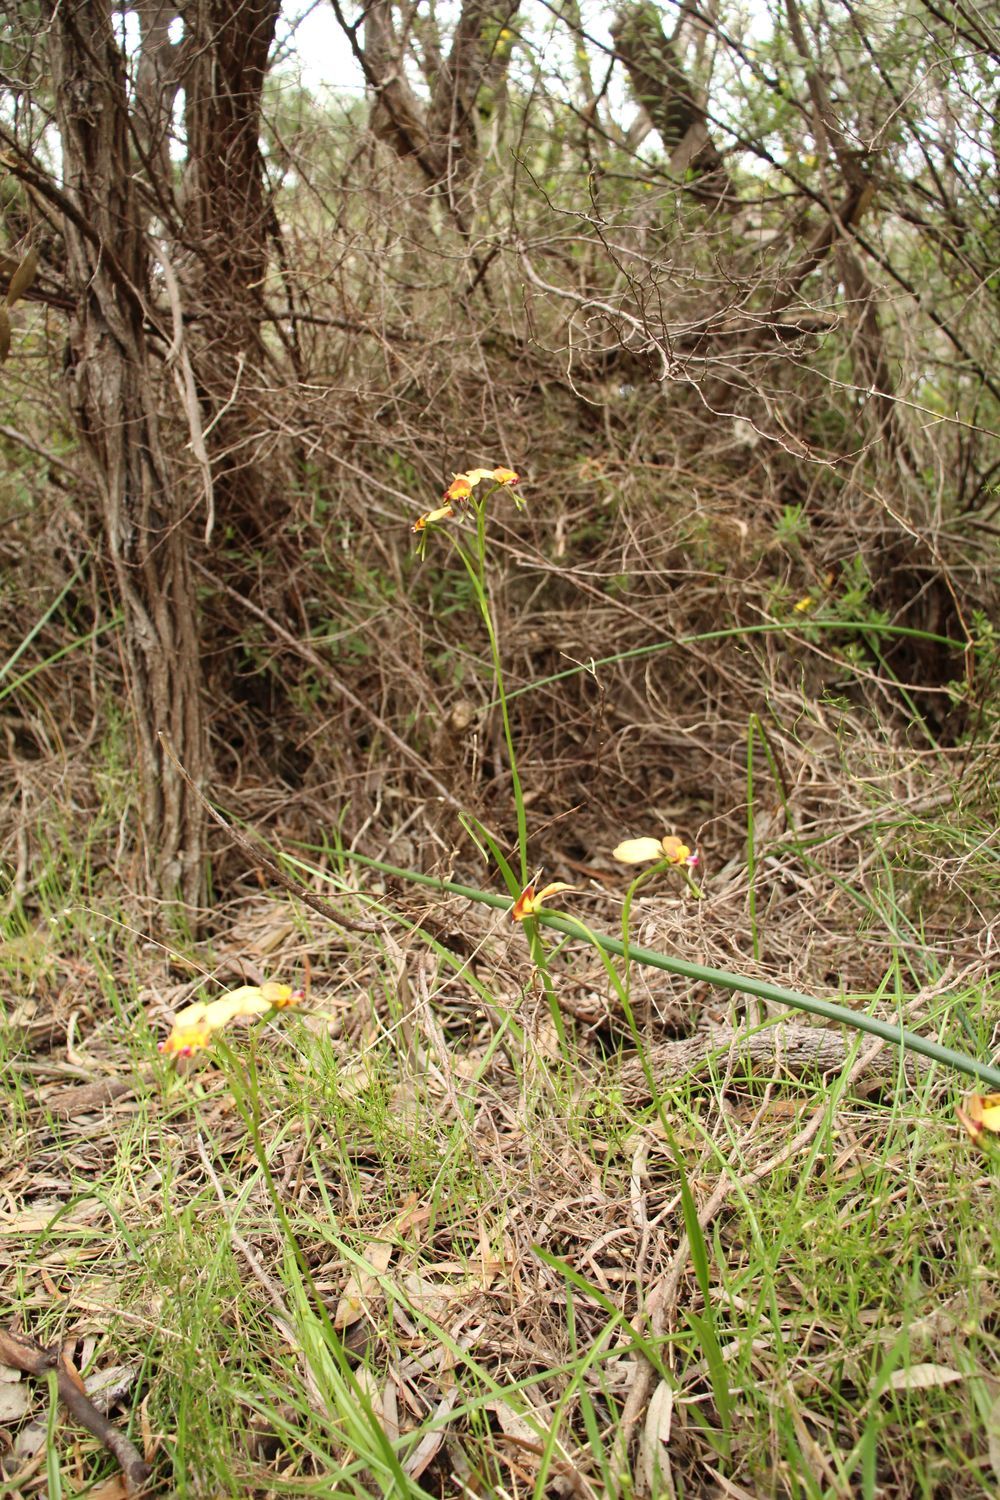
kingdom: Plantae
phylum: Tracheophyta
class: Liliopsida
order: Asparagales
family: Orchidaceae
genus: Diuris
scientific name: Diuris jonesii
